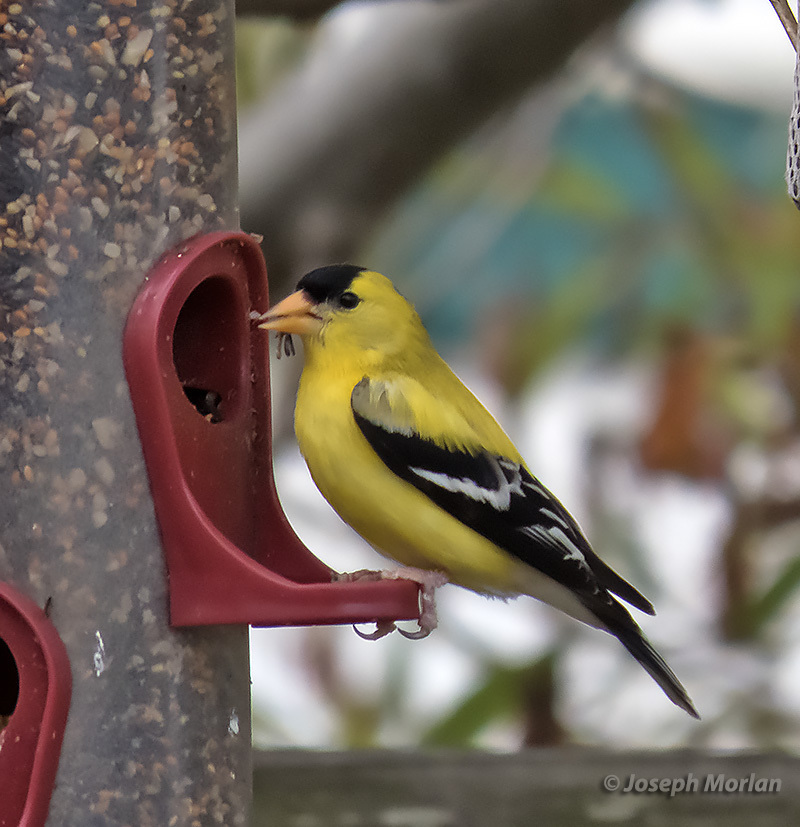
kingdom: Animalia
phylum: Chordata
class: Aves
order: Passeriformes
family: Fringillidae
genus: Spinus
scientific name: Spinus tristis
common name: American goldfinch
